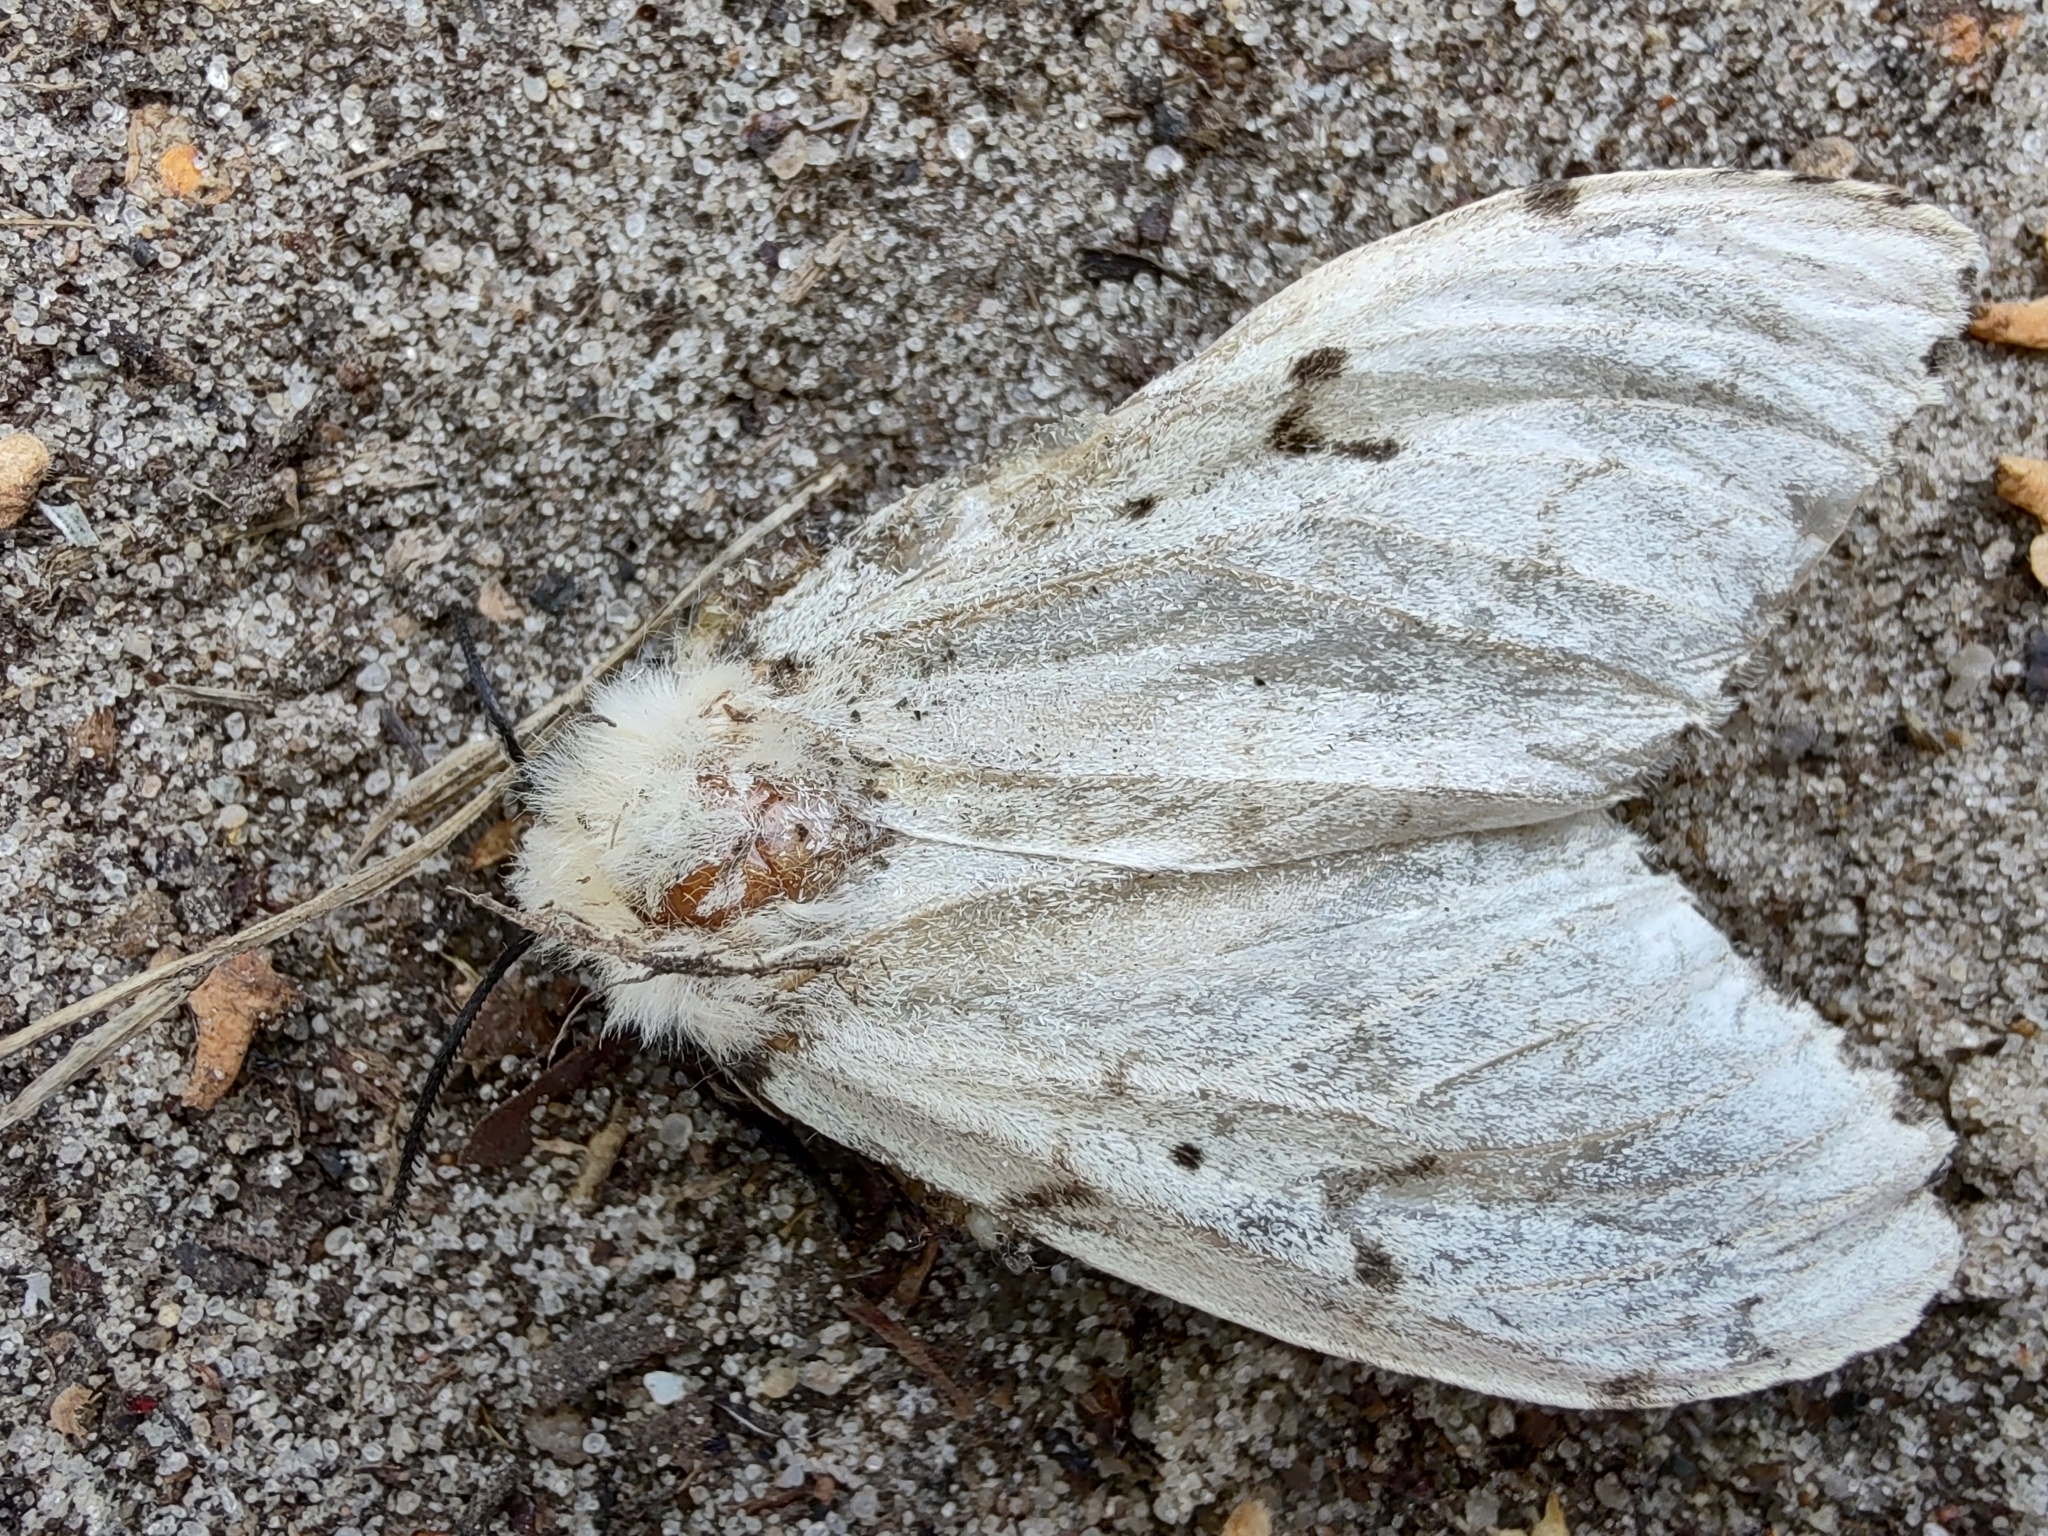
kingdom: Animalia
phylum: Arthropoda
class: Insecta
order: Lepidoptera
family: Erebidae
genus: Lymantria
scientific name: Lymantria dispar
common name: Gypsy moth
